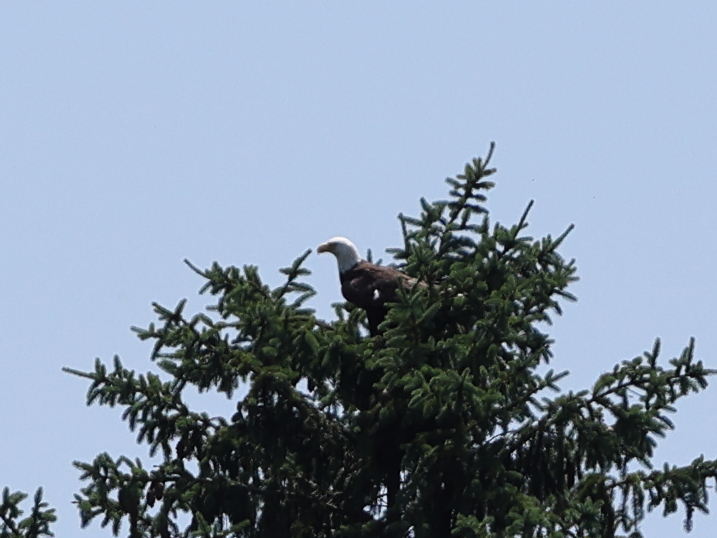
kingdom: Animalia
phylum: Chordata
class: Aves
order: Accipitriformes
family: Accipitridae
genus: Haliaeetus
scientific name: Haliaeetus leucocephalus
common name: Bald eagle
